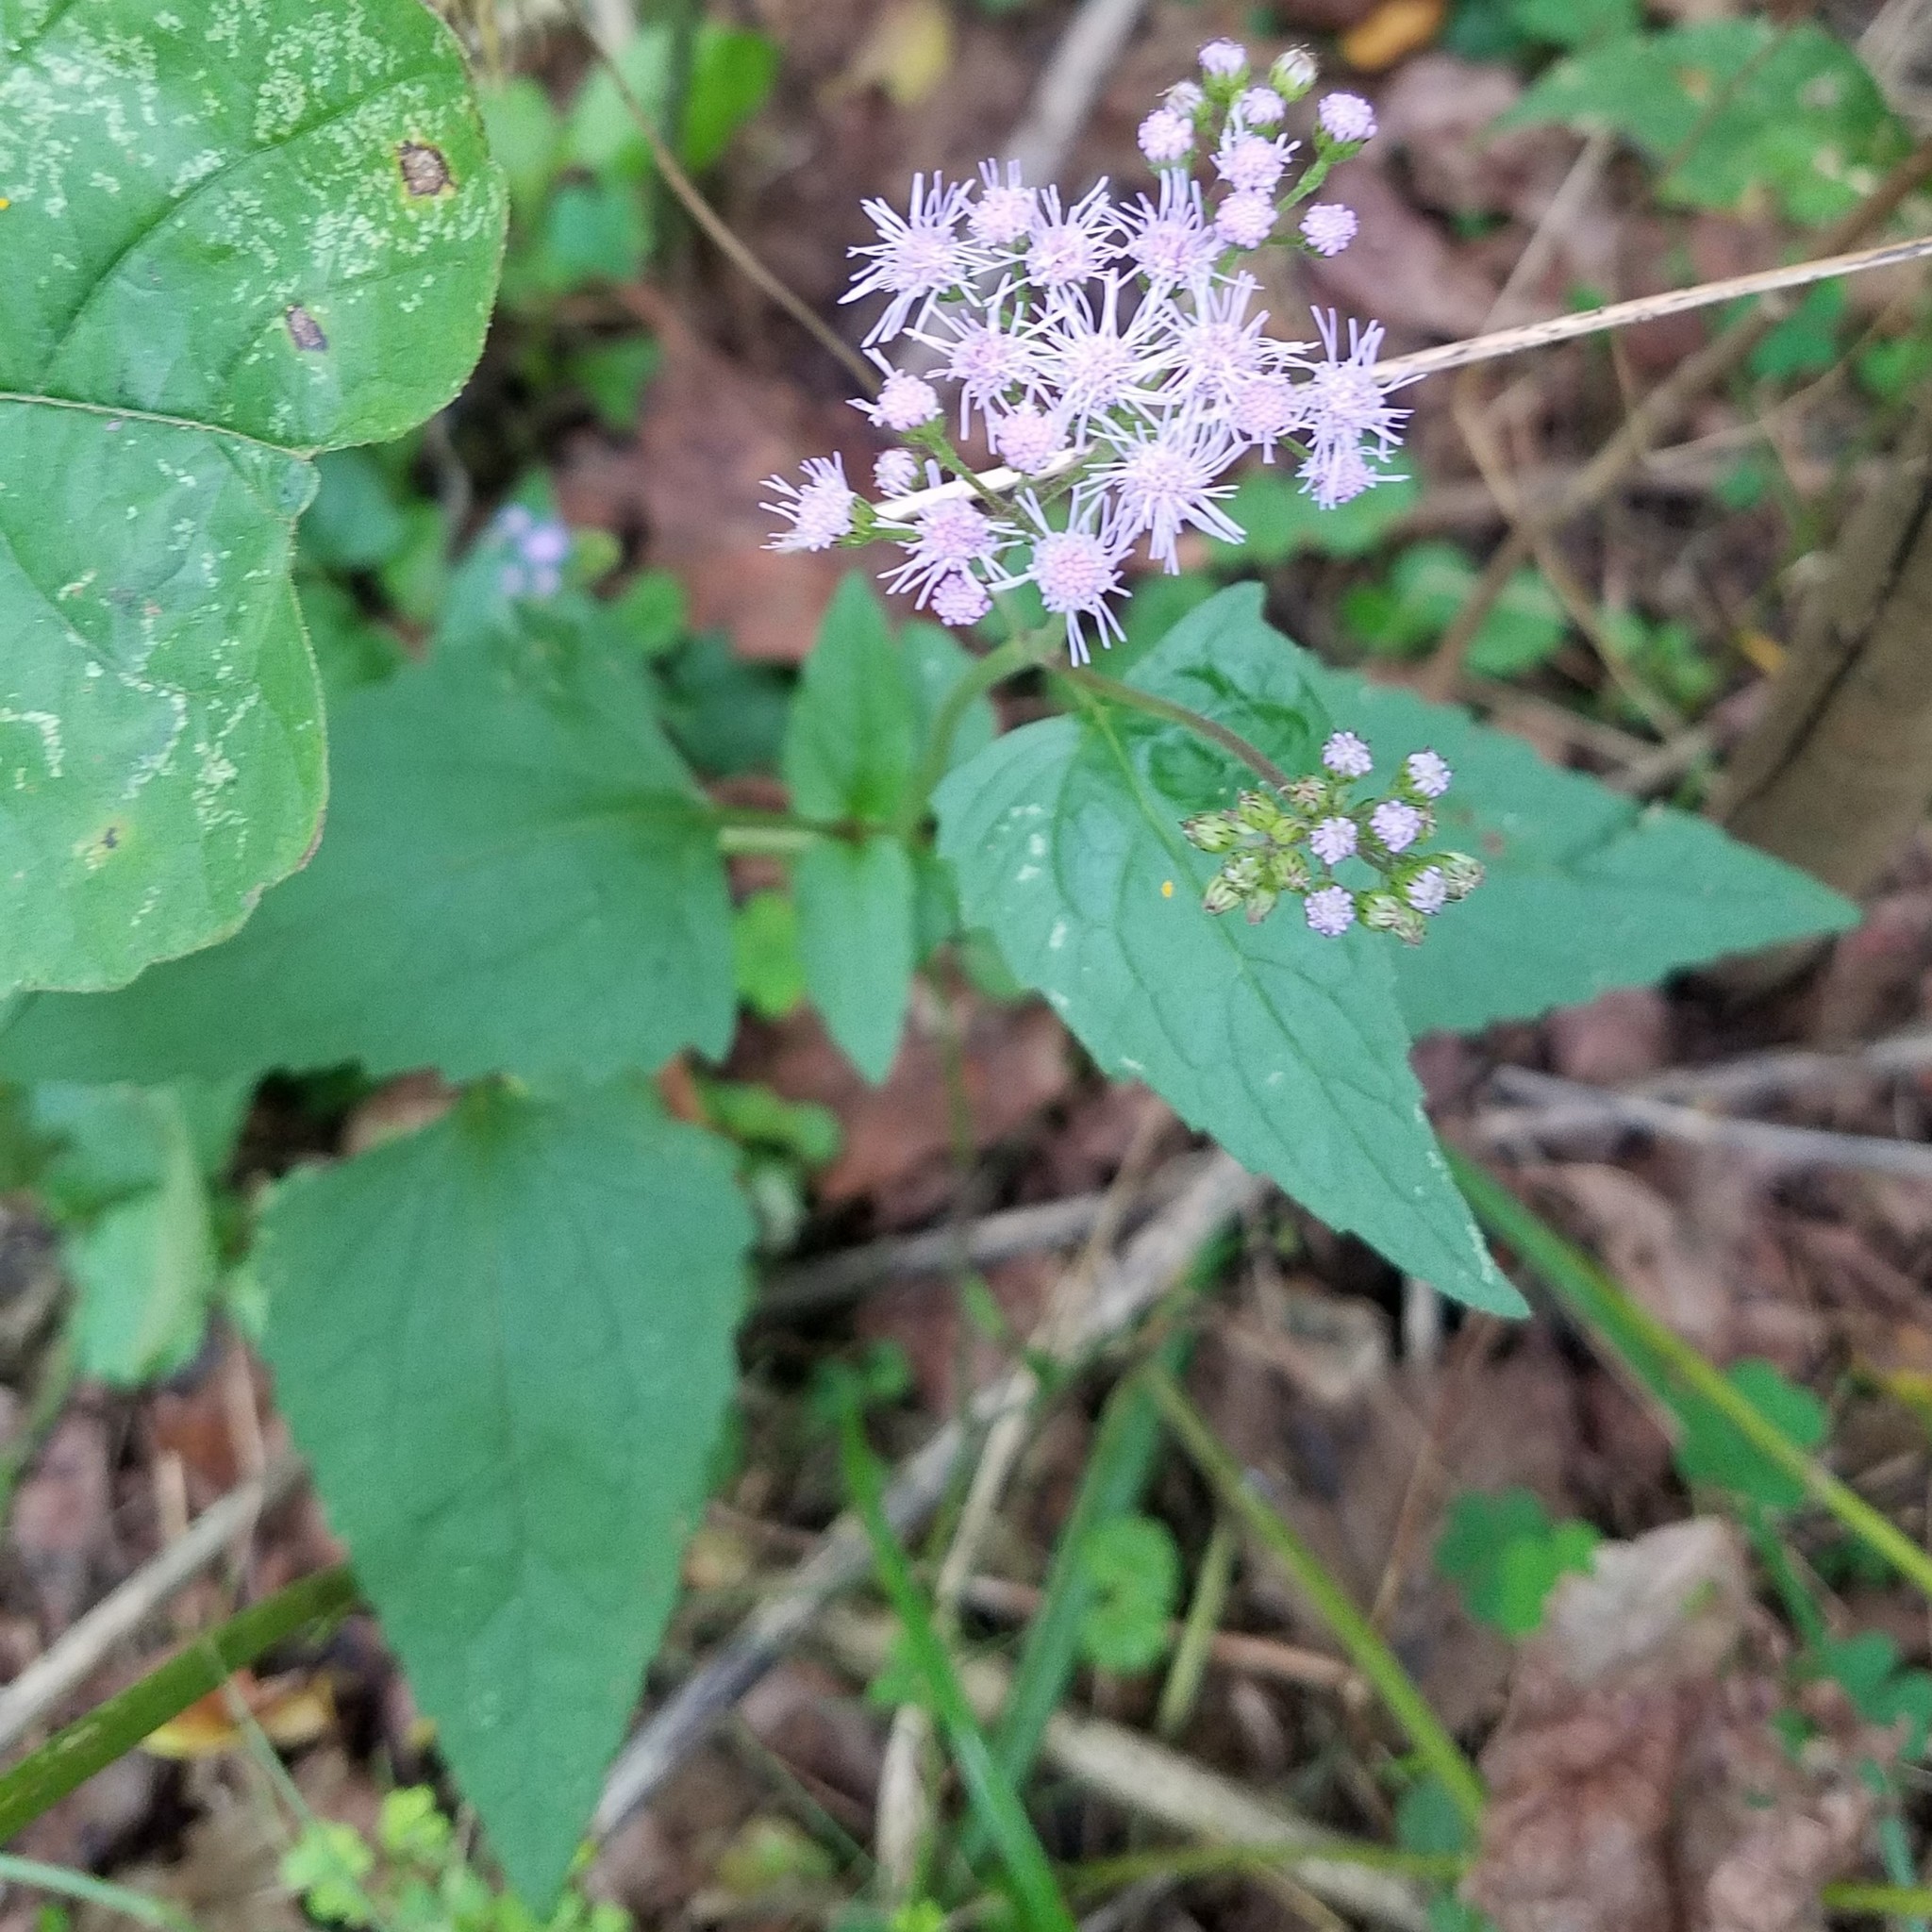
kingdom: Plantae
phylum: Tracheophyta
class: Magnoliopsida
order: Asterales
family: Asteraceae
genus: Conoclinium
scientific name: Conoclinium coelestinum
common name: Blue mistflower
